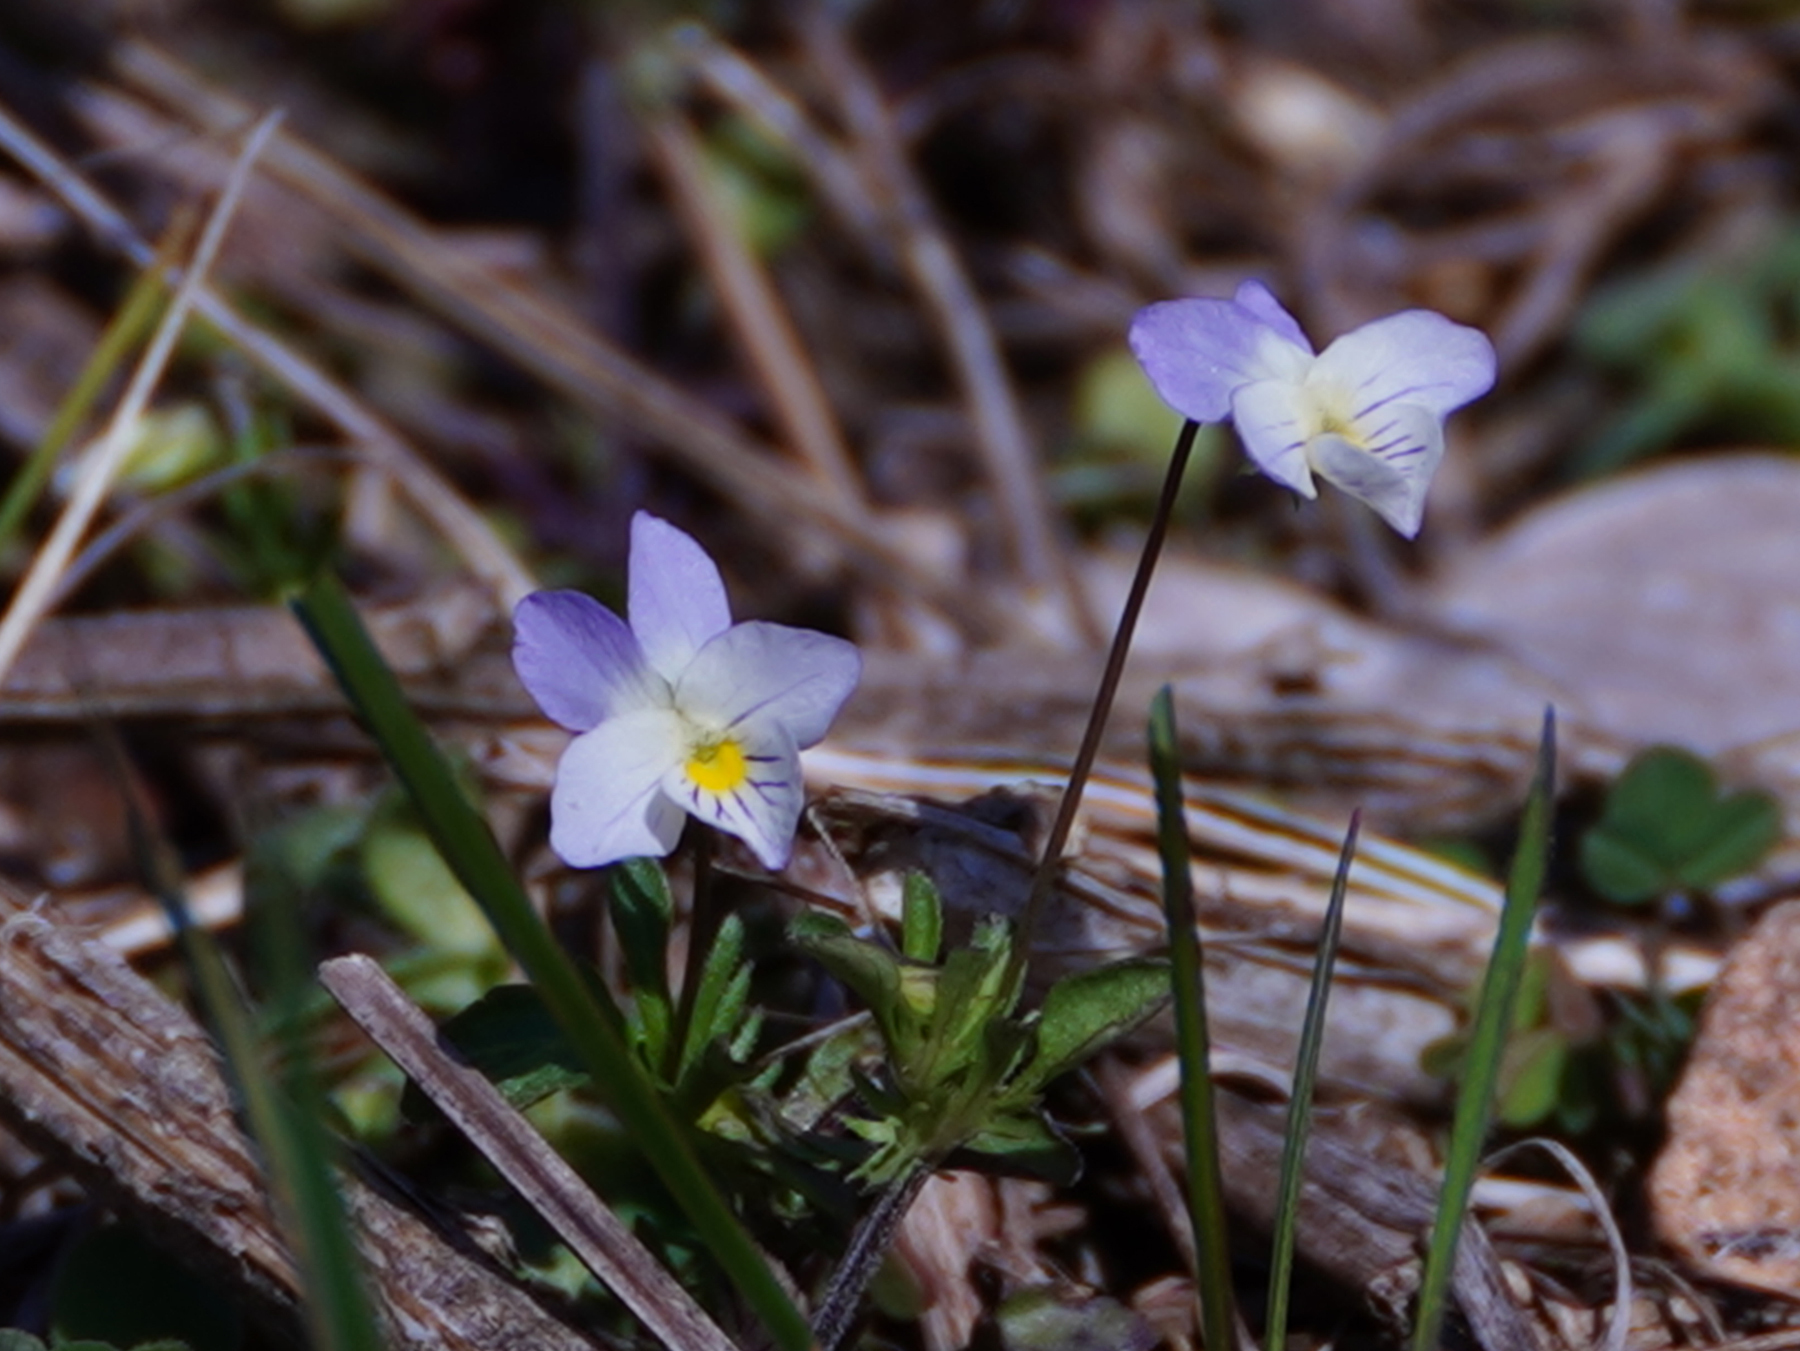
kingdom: Plantae
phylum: Tracheophyta
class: Magnoliopsida
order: Malpighiales
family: Violaceae
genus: Viola
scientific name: Viola rafinesquei
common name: American field pansy
